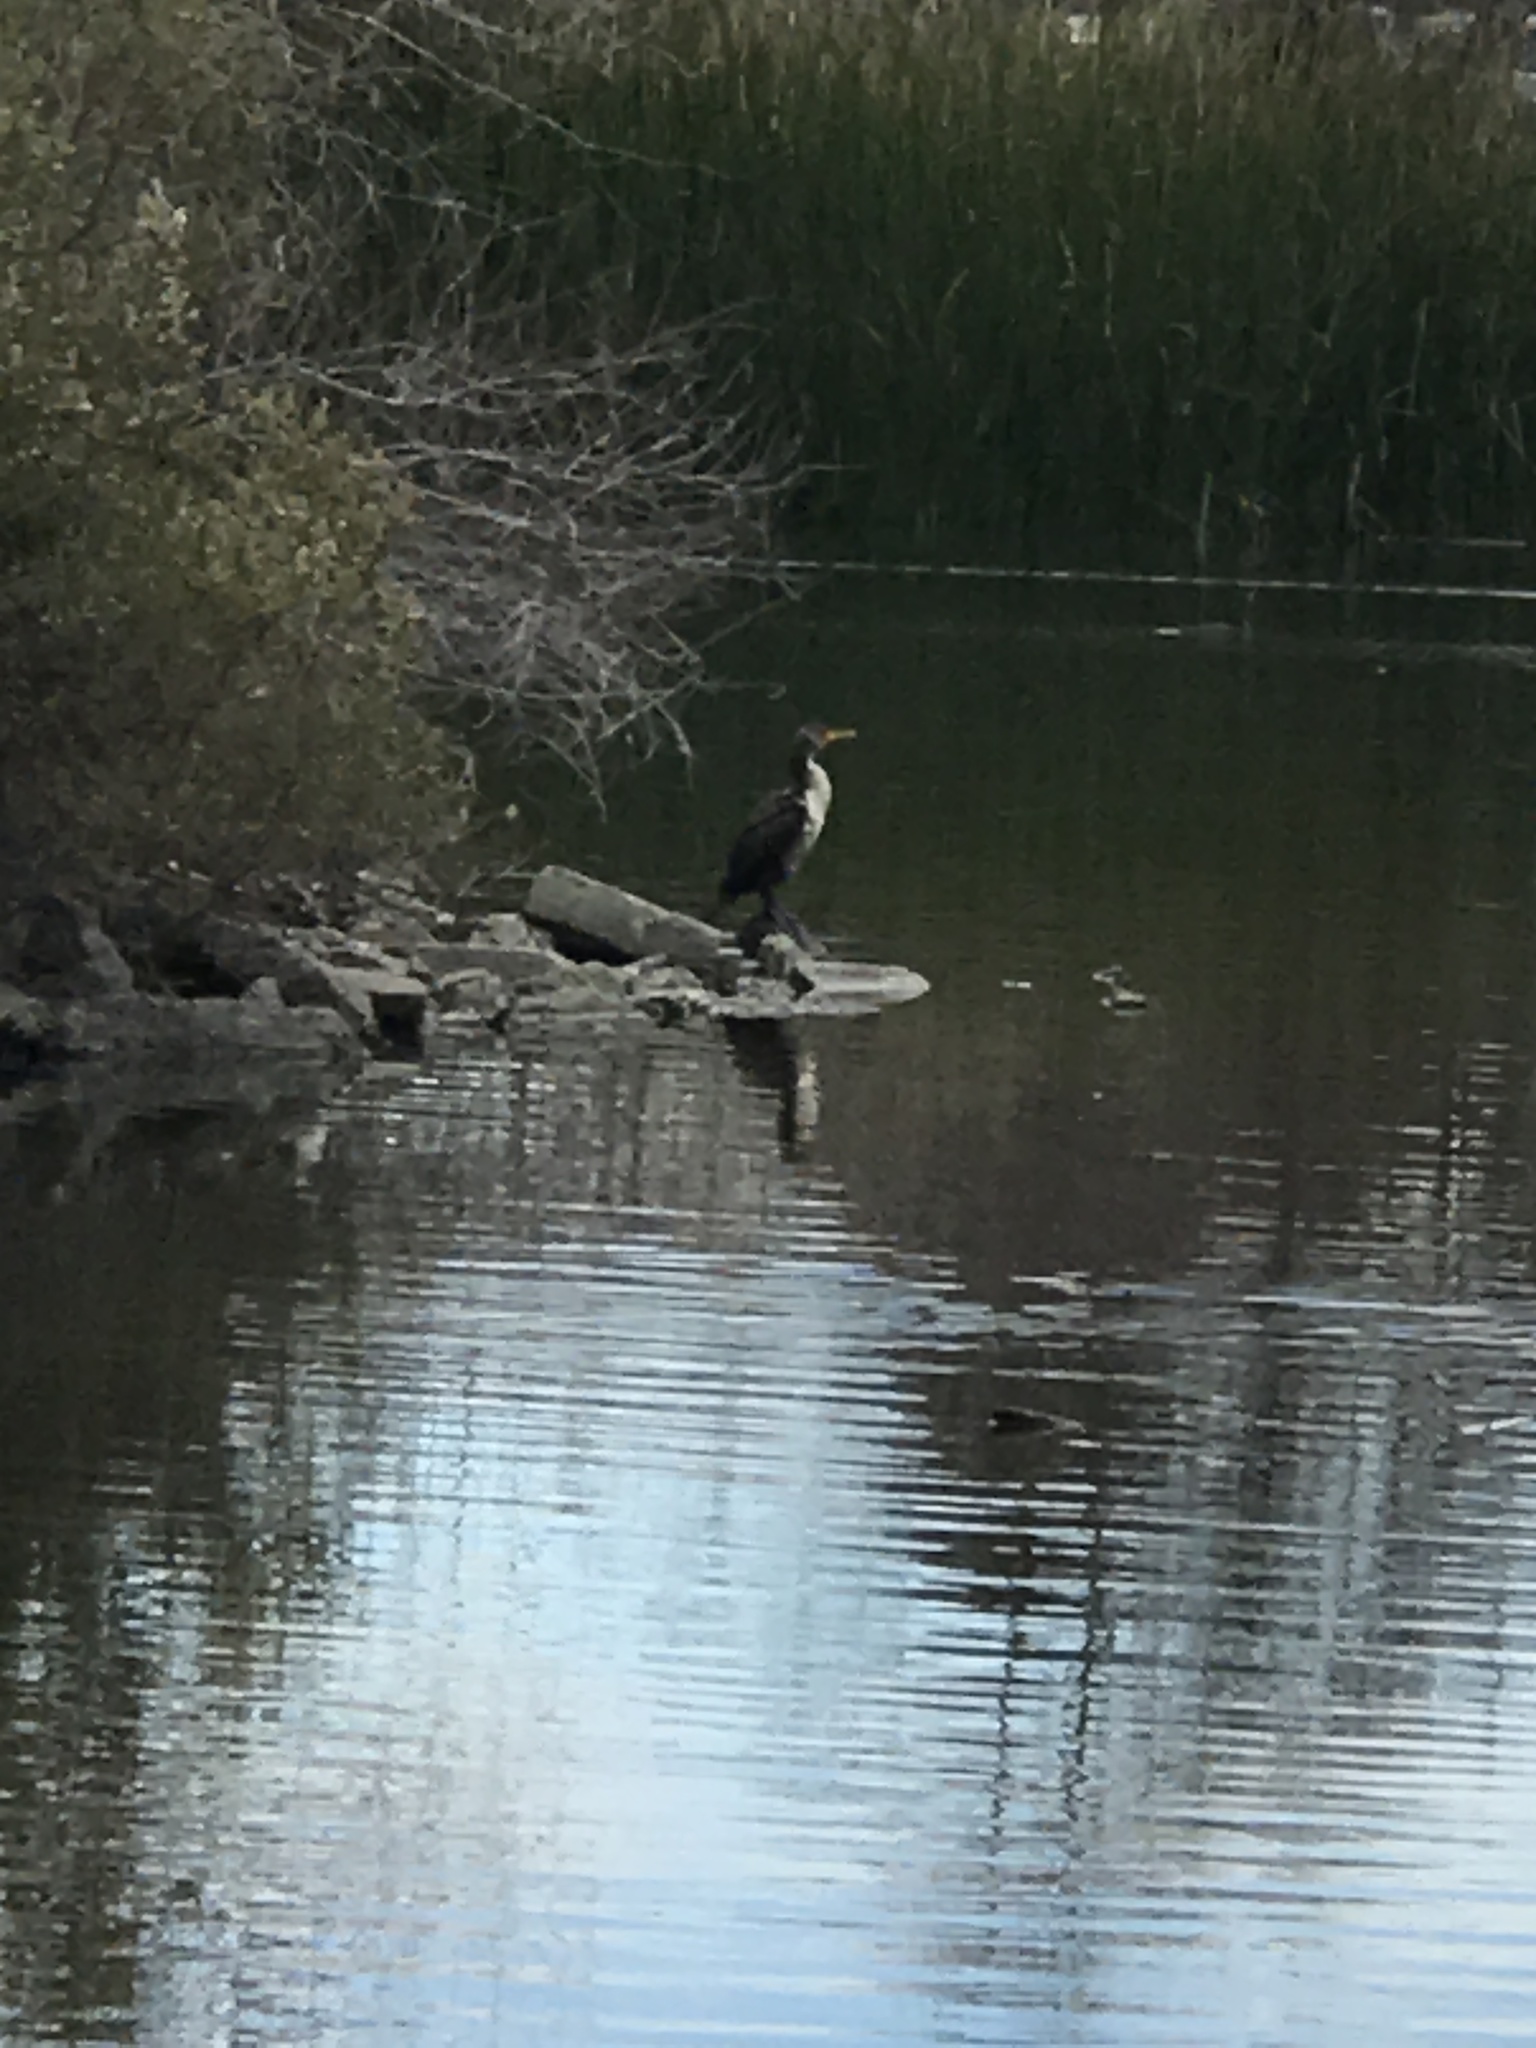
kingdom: Animalia
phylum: Chordata
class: Aves
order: Suliformes
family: Phalacrocoracidae
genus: Phalacrocorax
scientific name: Phalacrocorax auritus
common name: Double-crested cormorant
